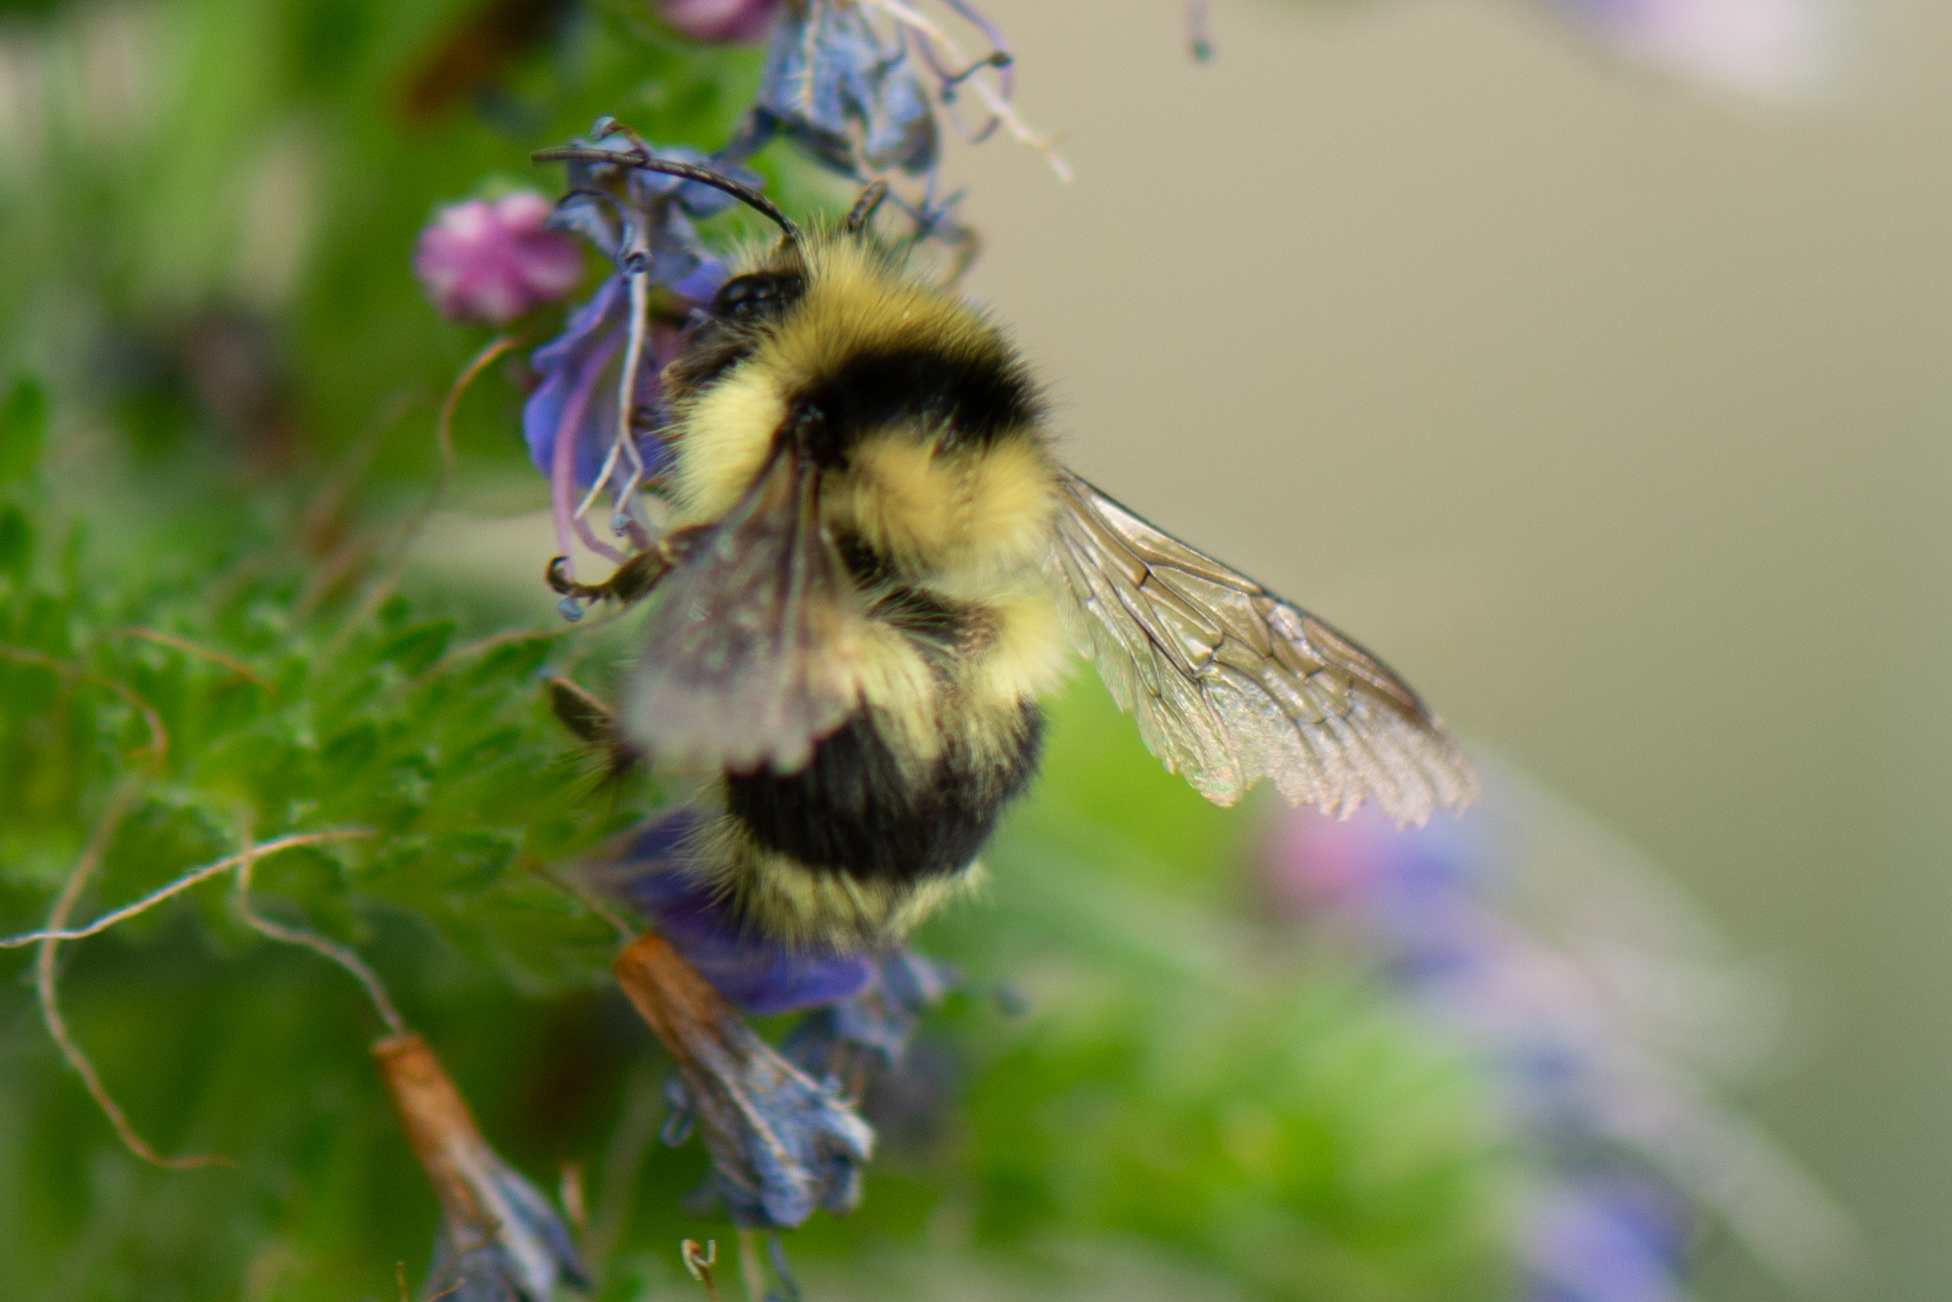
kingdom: Animalia
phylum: Arthropoda
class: Insecta
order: Hymenoptera
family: Apidae
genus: Bombus
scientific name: Bombus melanopygus
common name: Black tail bumble bee
